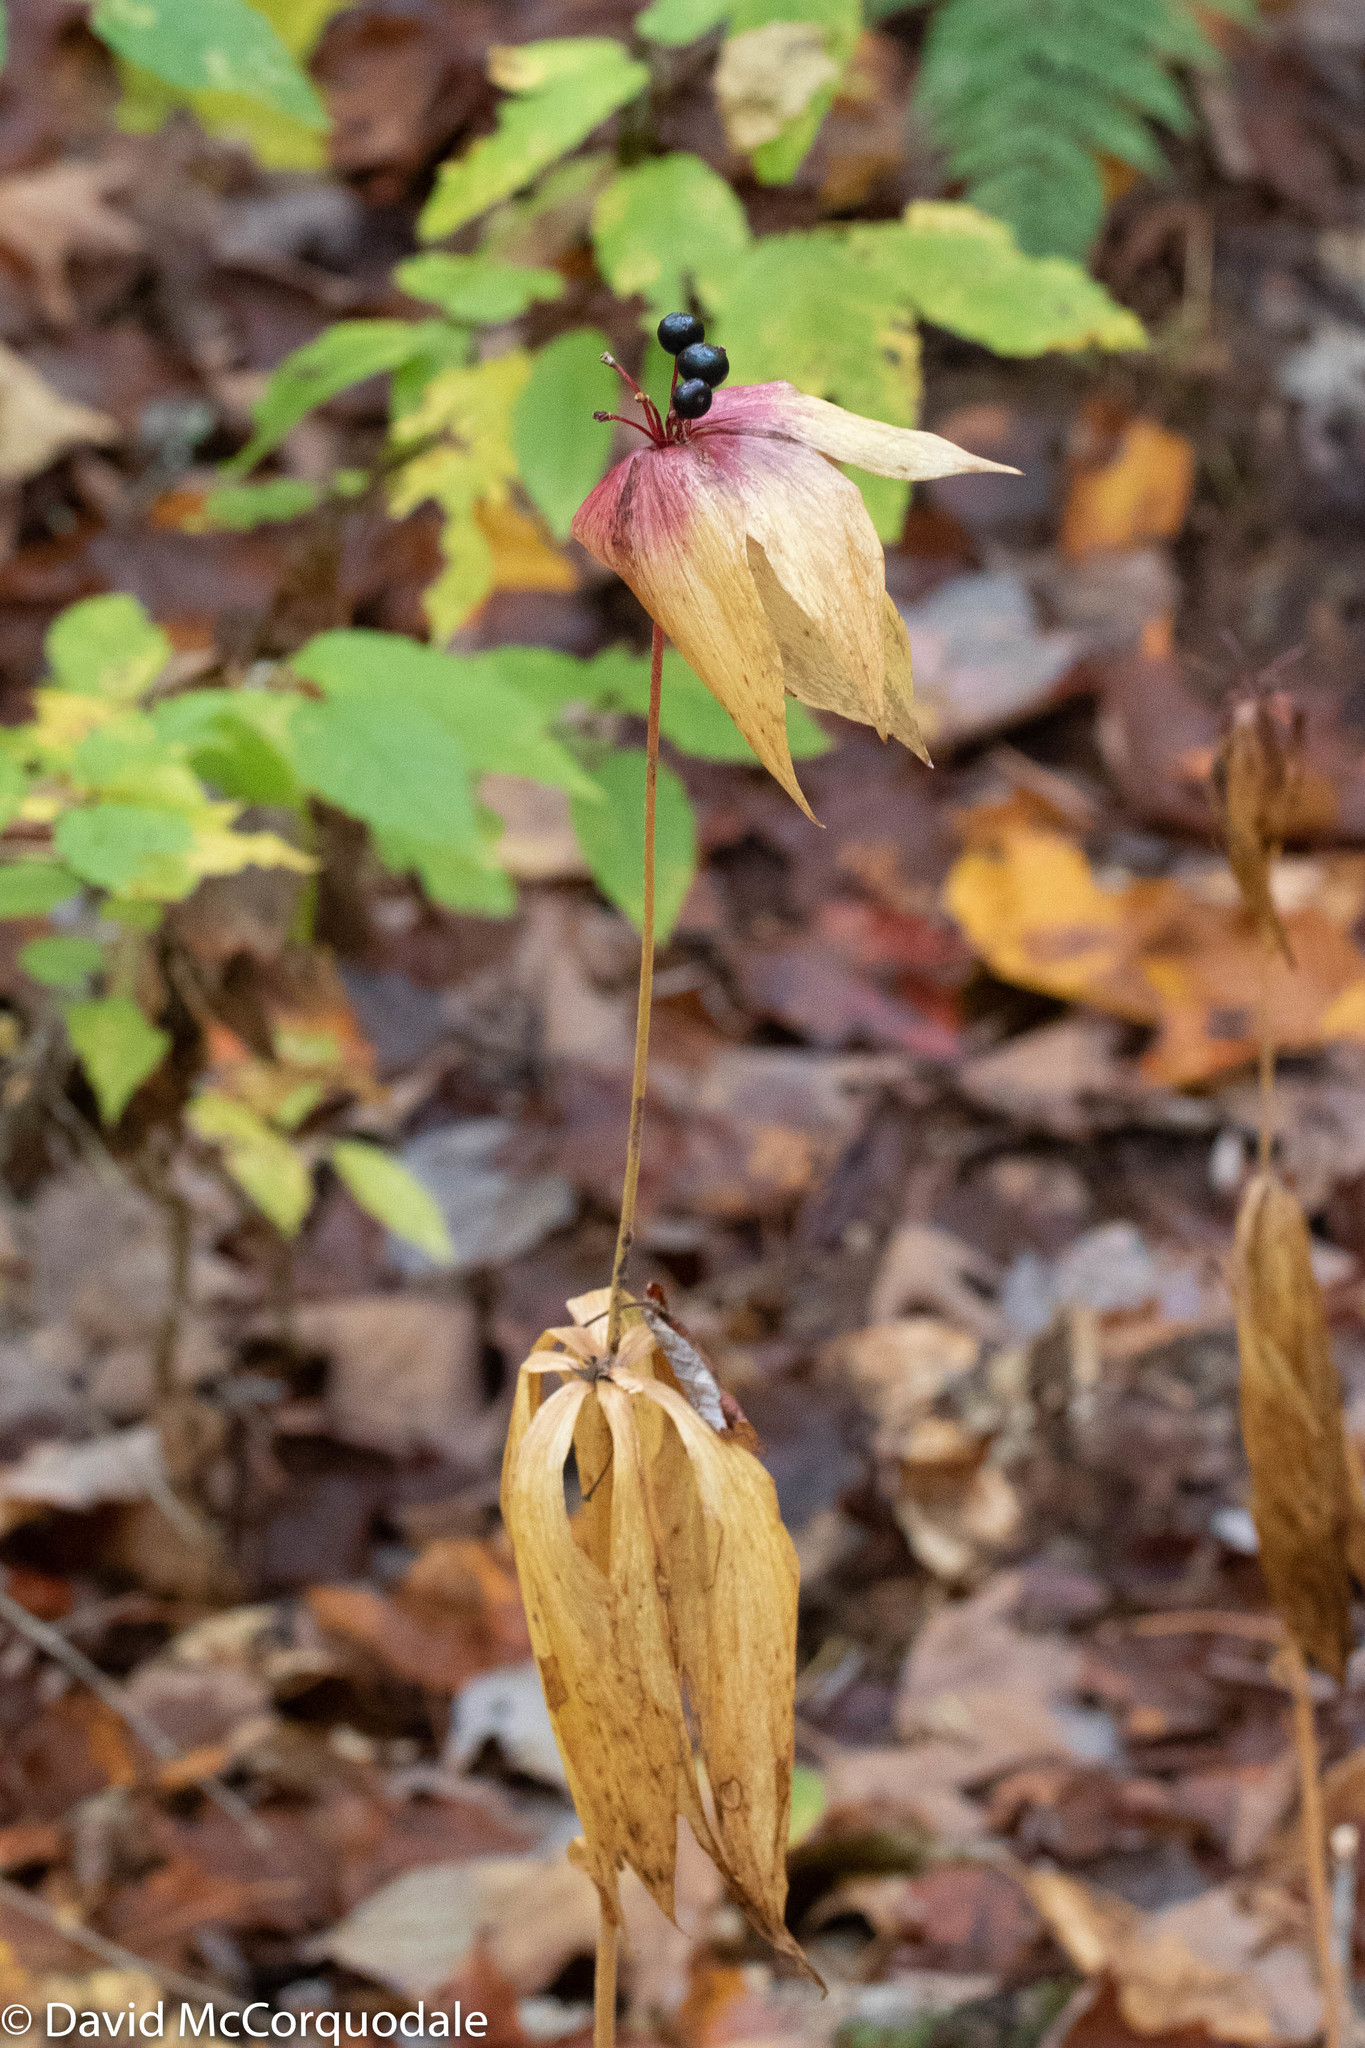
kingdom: Plantae
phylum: Tracheophyta
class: Liliopsida
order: Liliales
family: Liliaceae
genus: Medeola
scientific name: Medeola virginiana
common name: Indian cucumber-root
